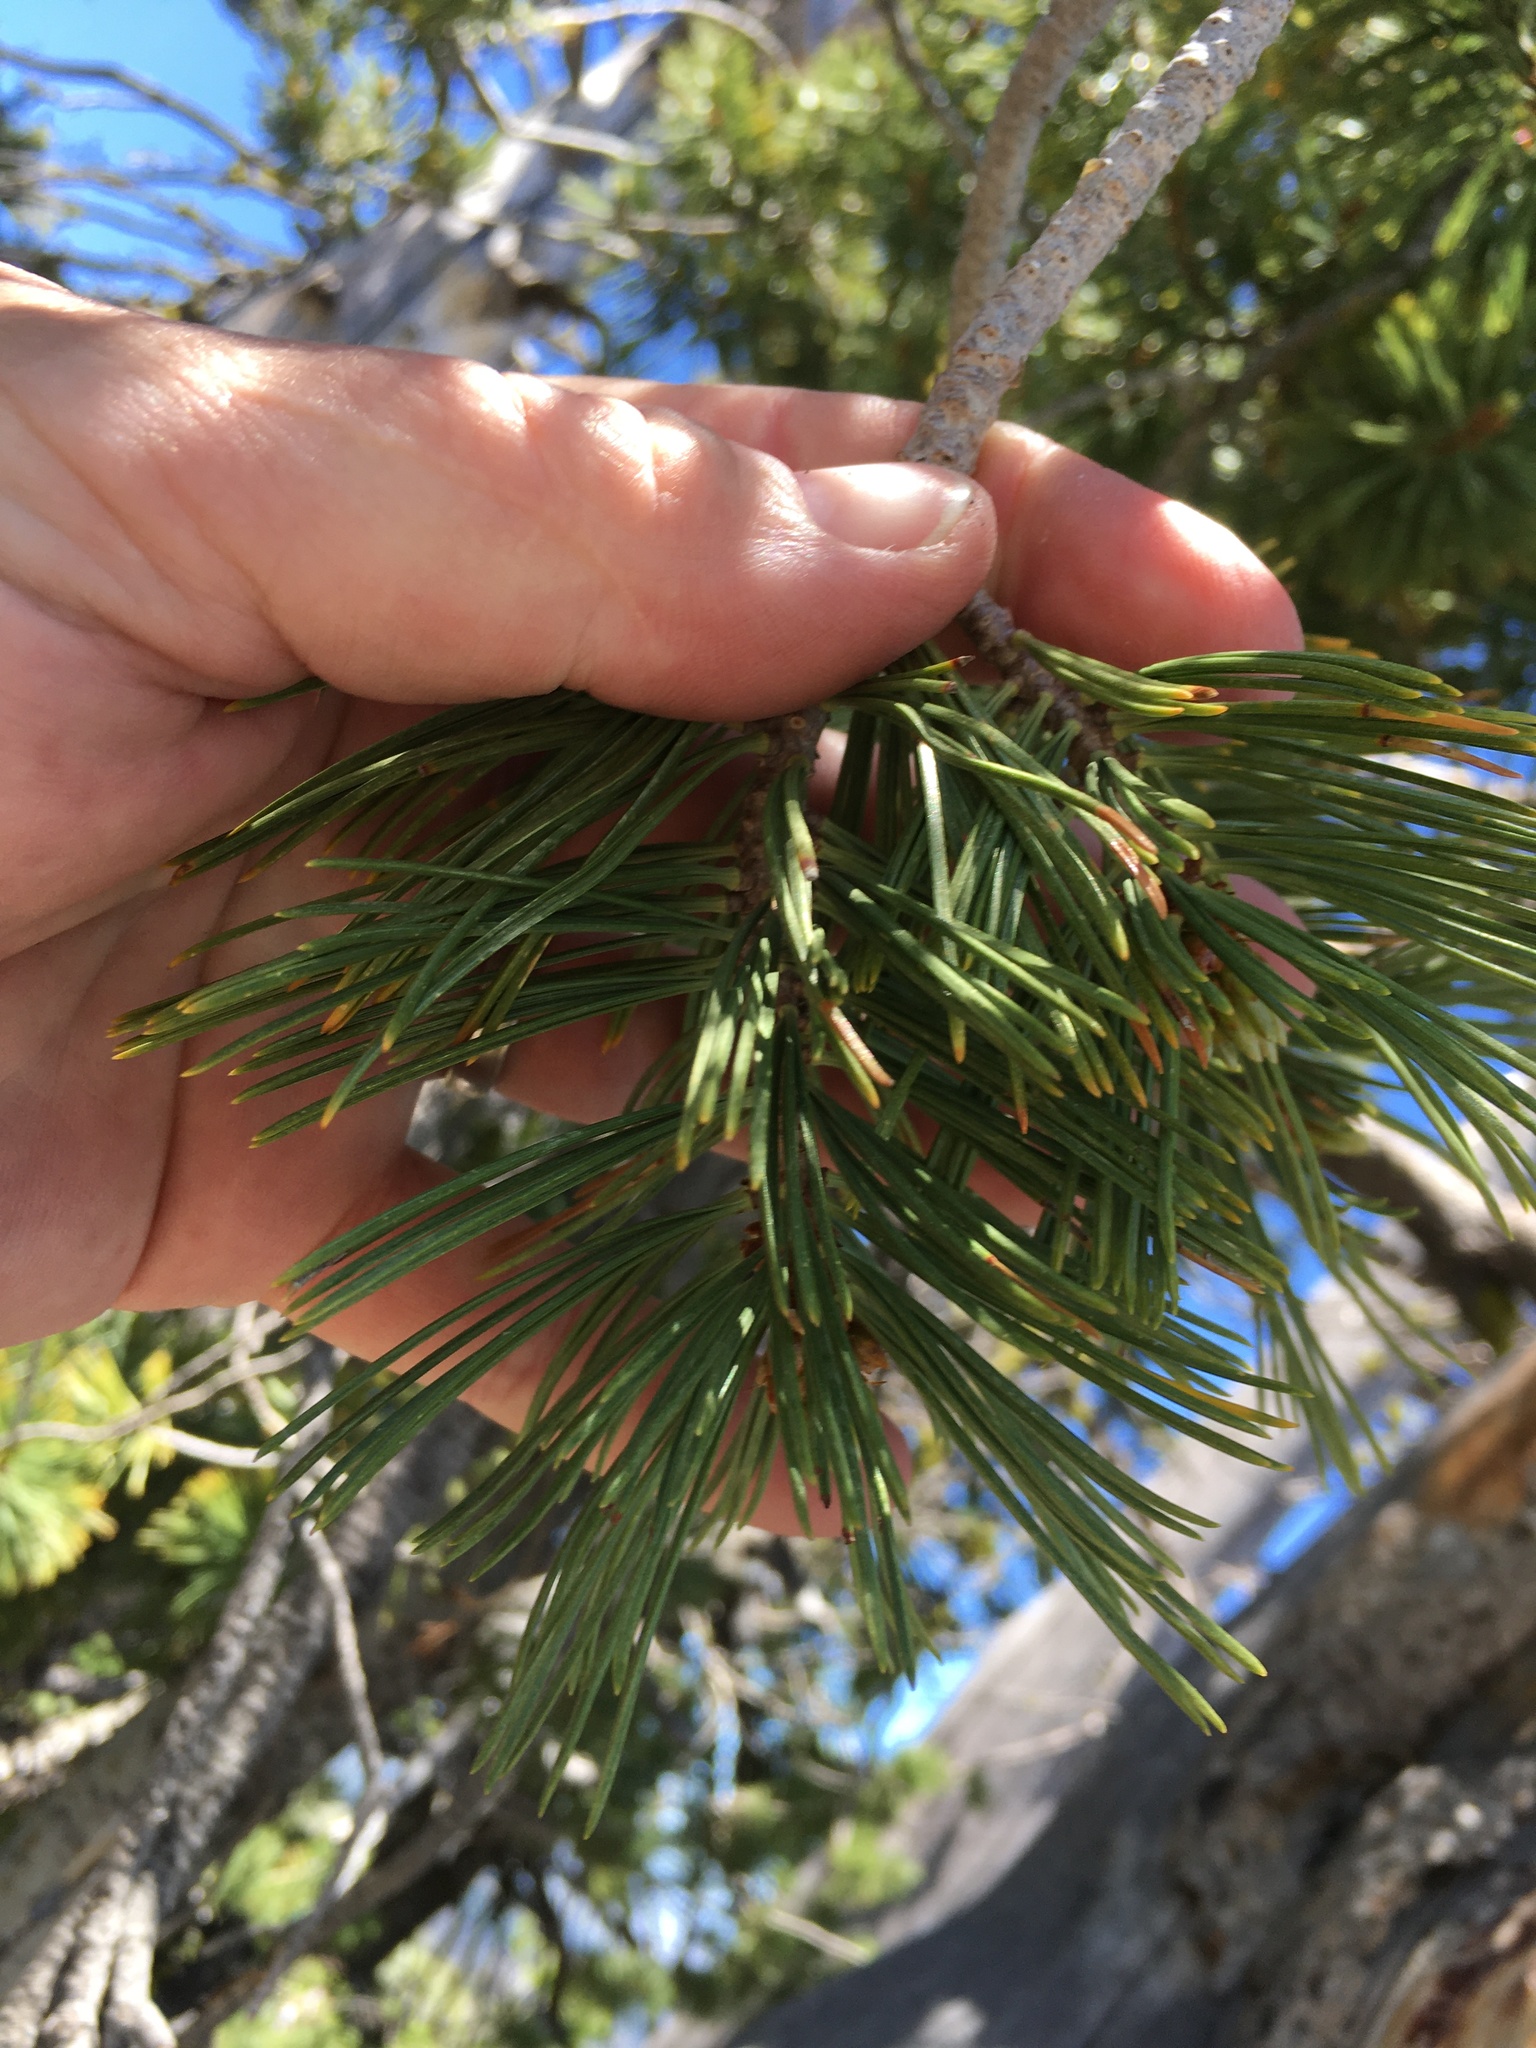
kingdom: Plantae
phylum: Tracheophyta
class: Pinopsida
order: Pinales
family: Pinaceae
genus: Pinus
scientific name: Pinus albicaulis
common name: Whitebark pine
